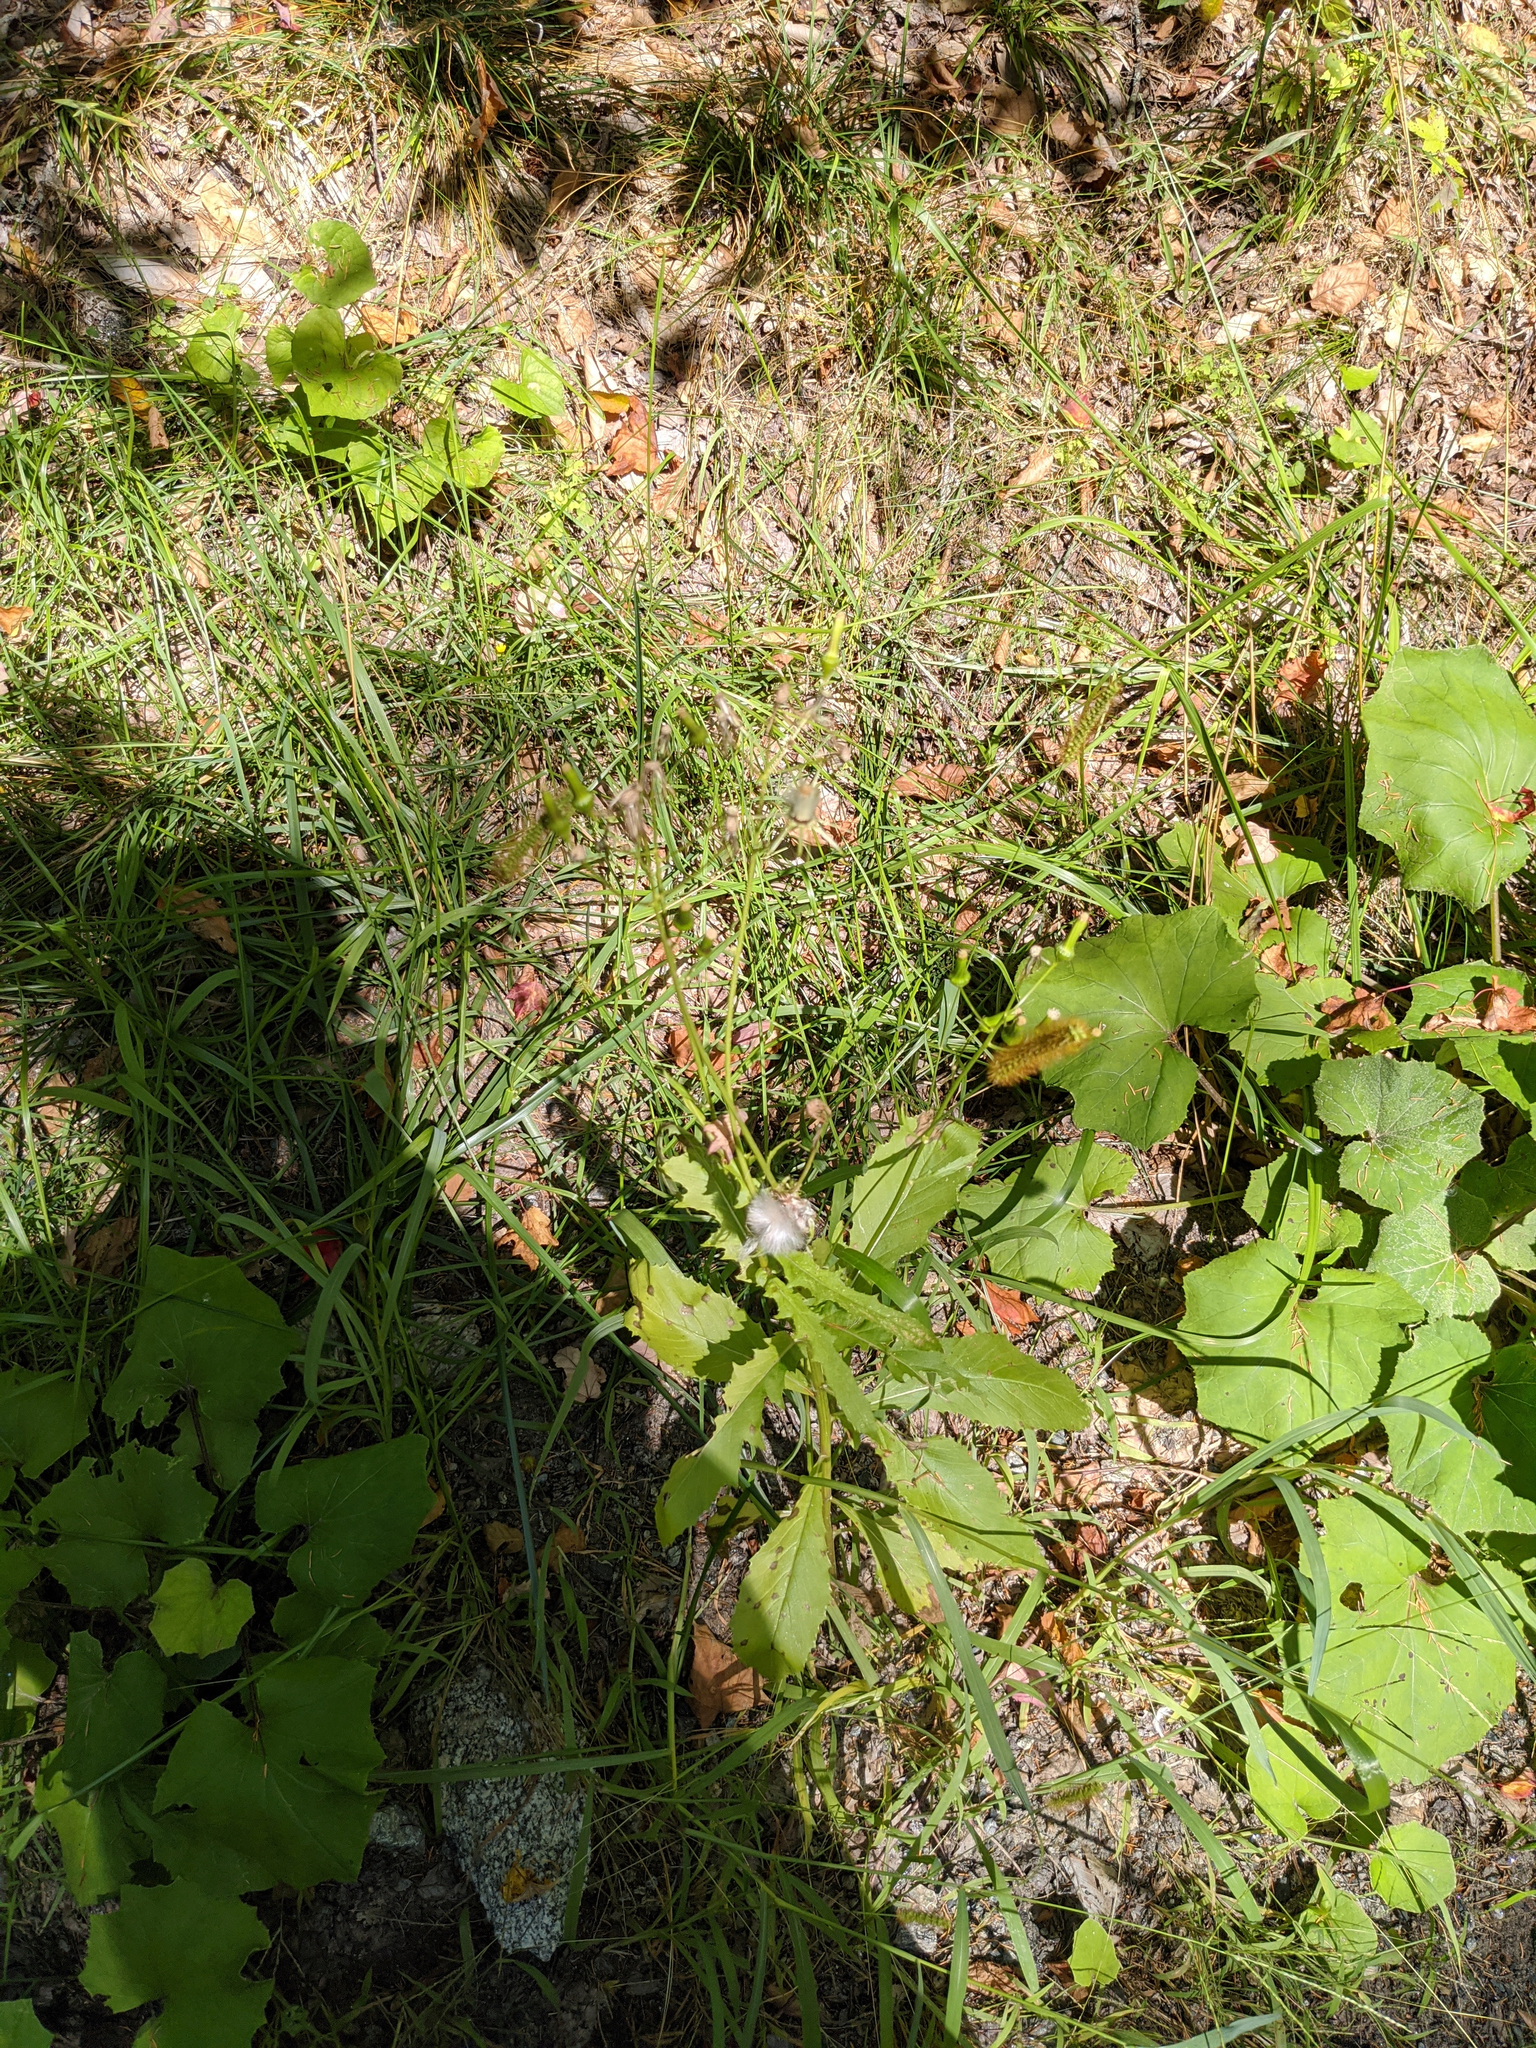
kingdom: Plantae
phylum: Tracheophyta
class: Magnoliopsida
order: Asterales
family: Asteraceae
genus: Erechtites
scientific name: Erechtites hieraciifolius
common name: American burnweed
